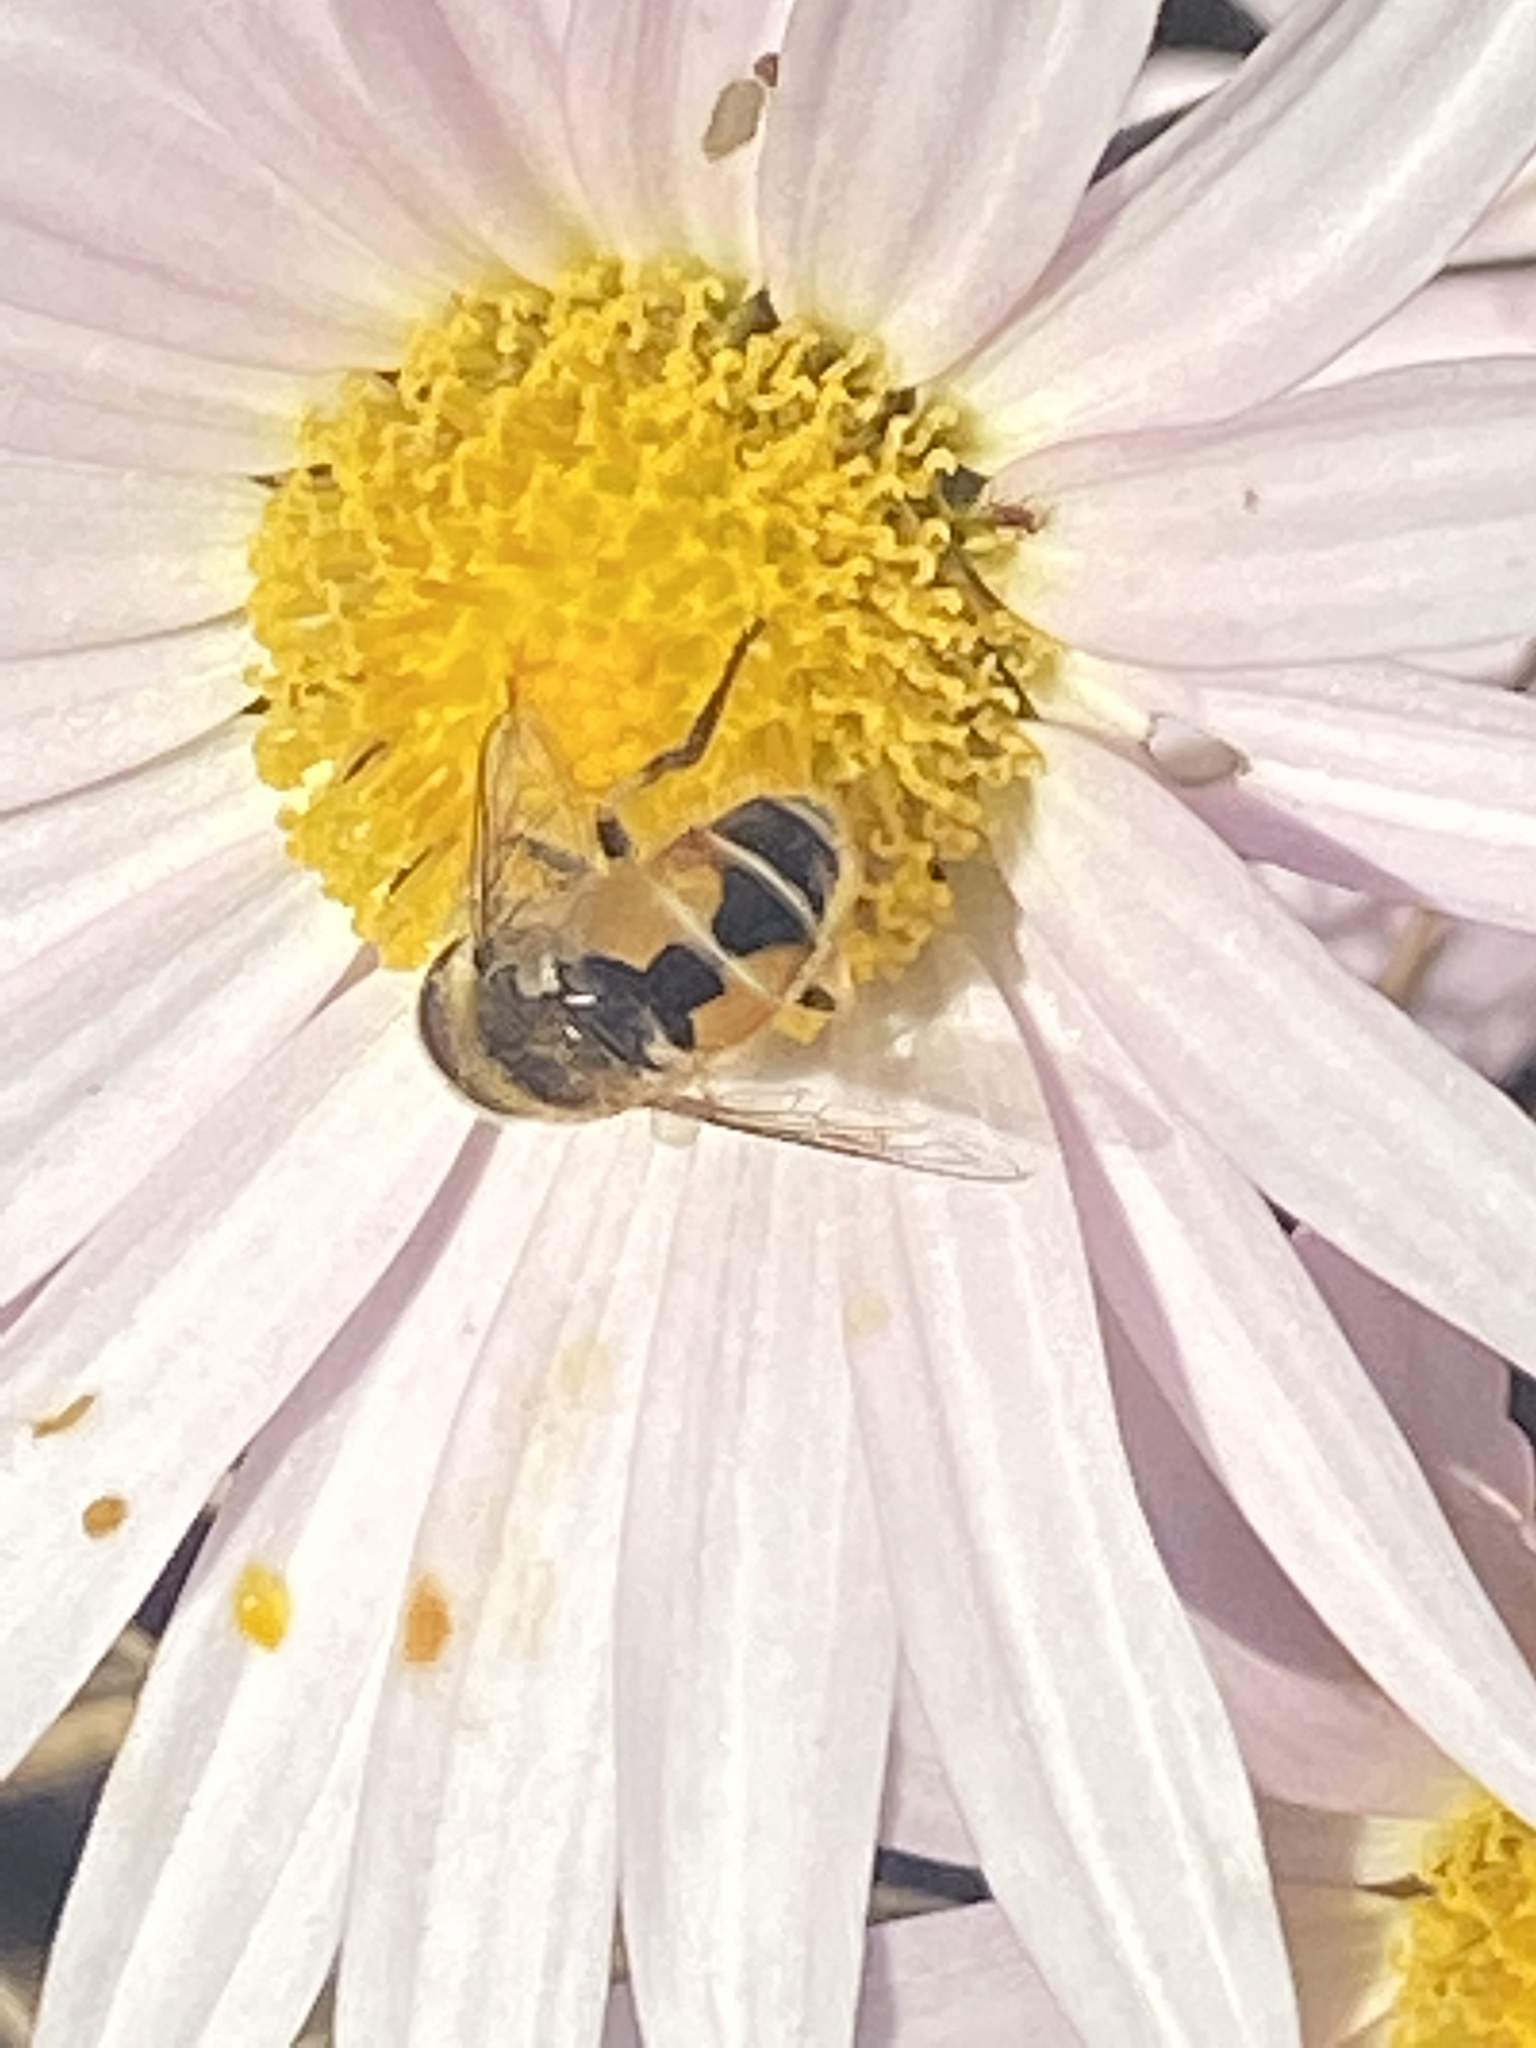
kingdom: Animalia
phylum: Arthropoda
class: Insecta
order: Diptera
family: Syrphidae
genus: Eristalis
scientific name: Eristalis arbustorum
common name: Hover fly
